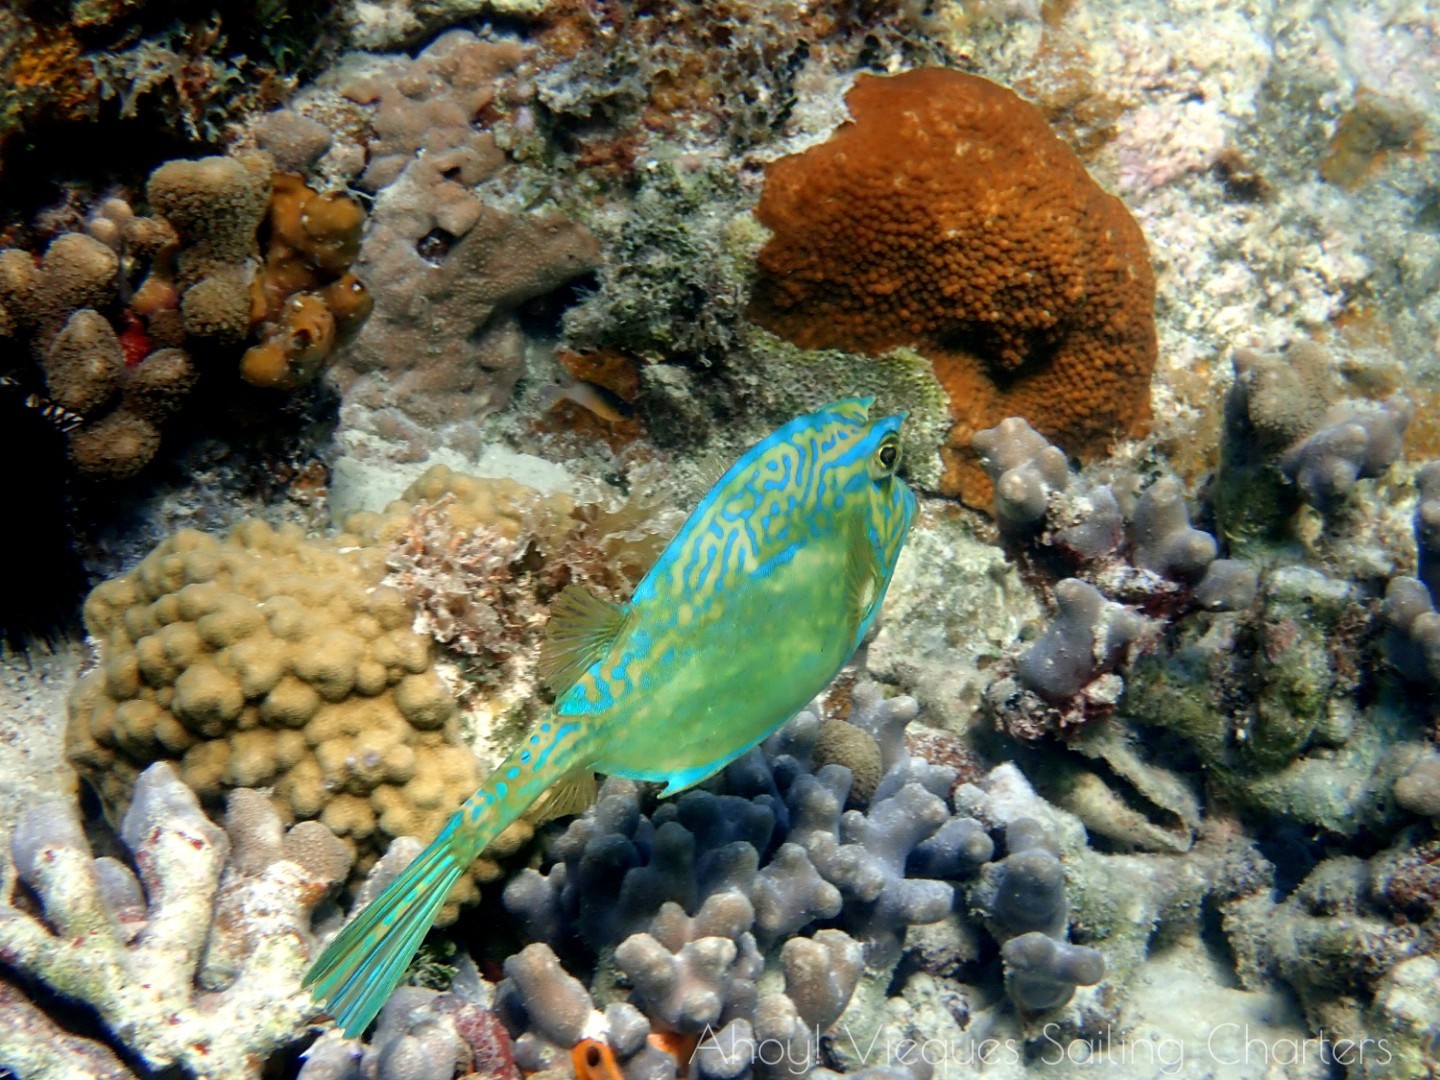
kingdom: Animalia
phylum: Chordata
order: Tetraodontiformes
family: Ostraciidae
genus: Acanthostracion
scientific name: Acanthostracion quadricornis
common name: Scrawled cowfish
